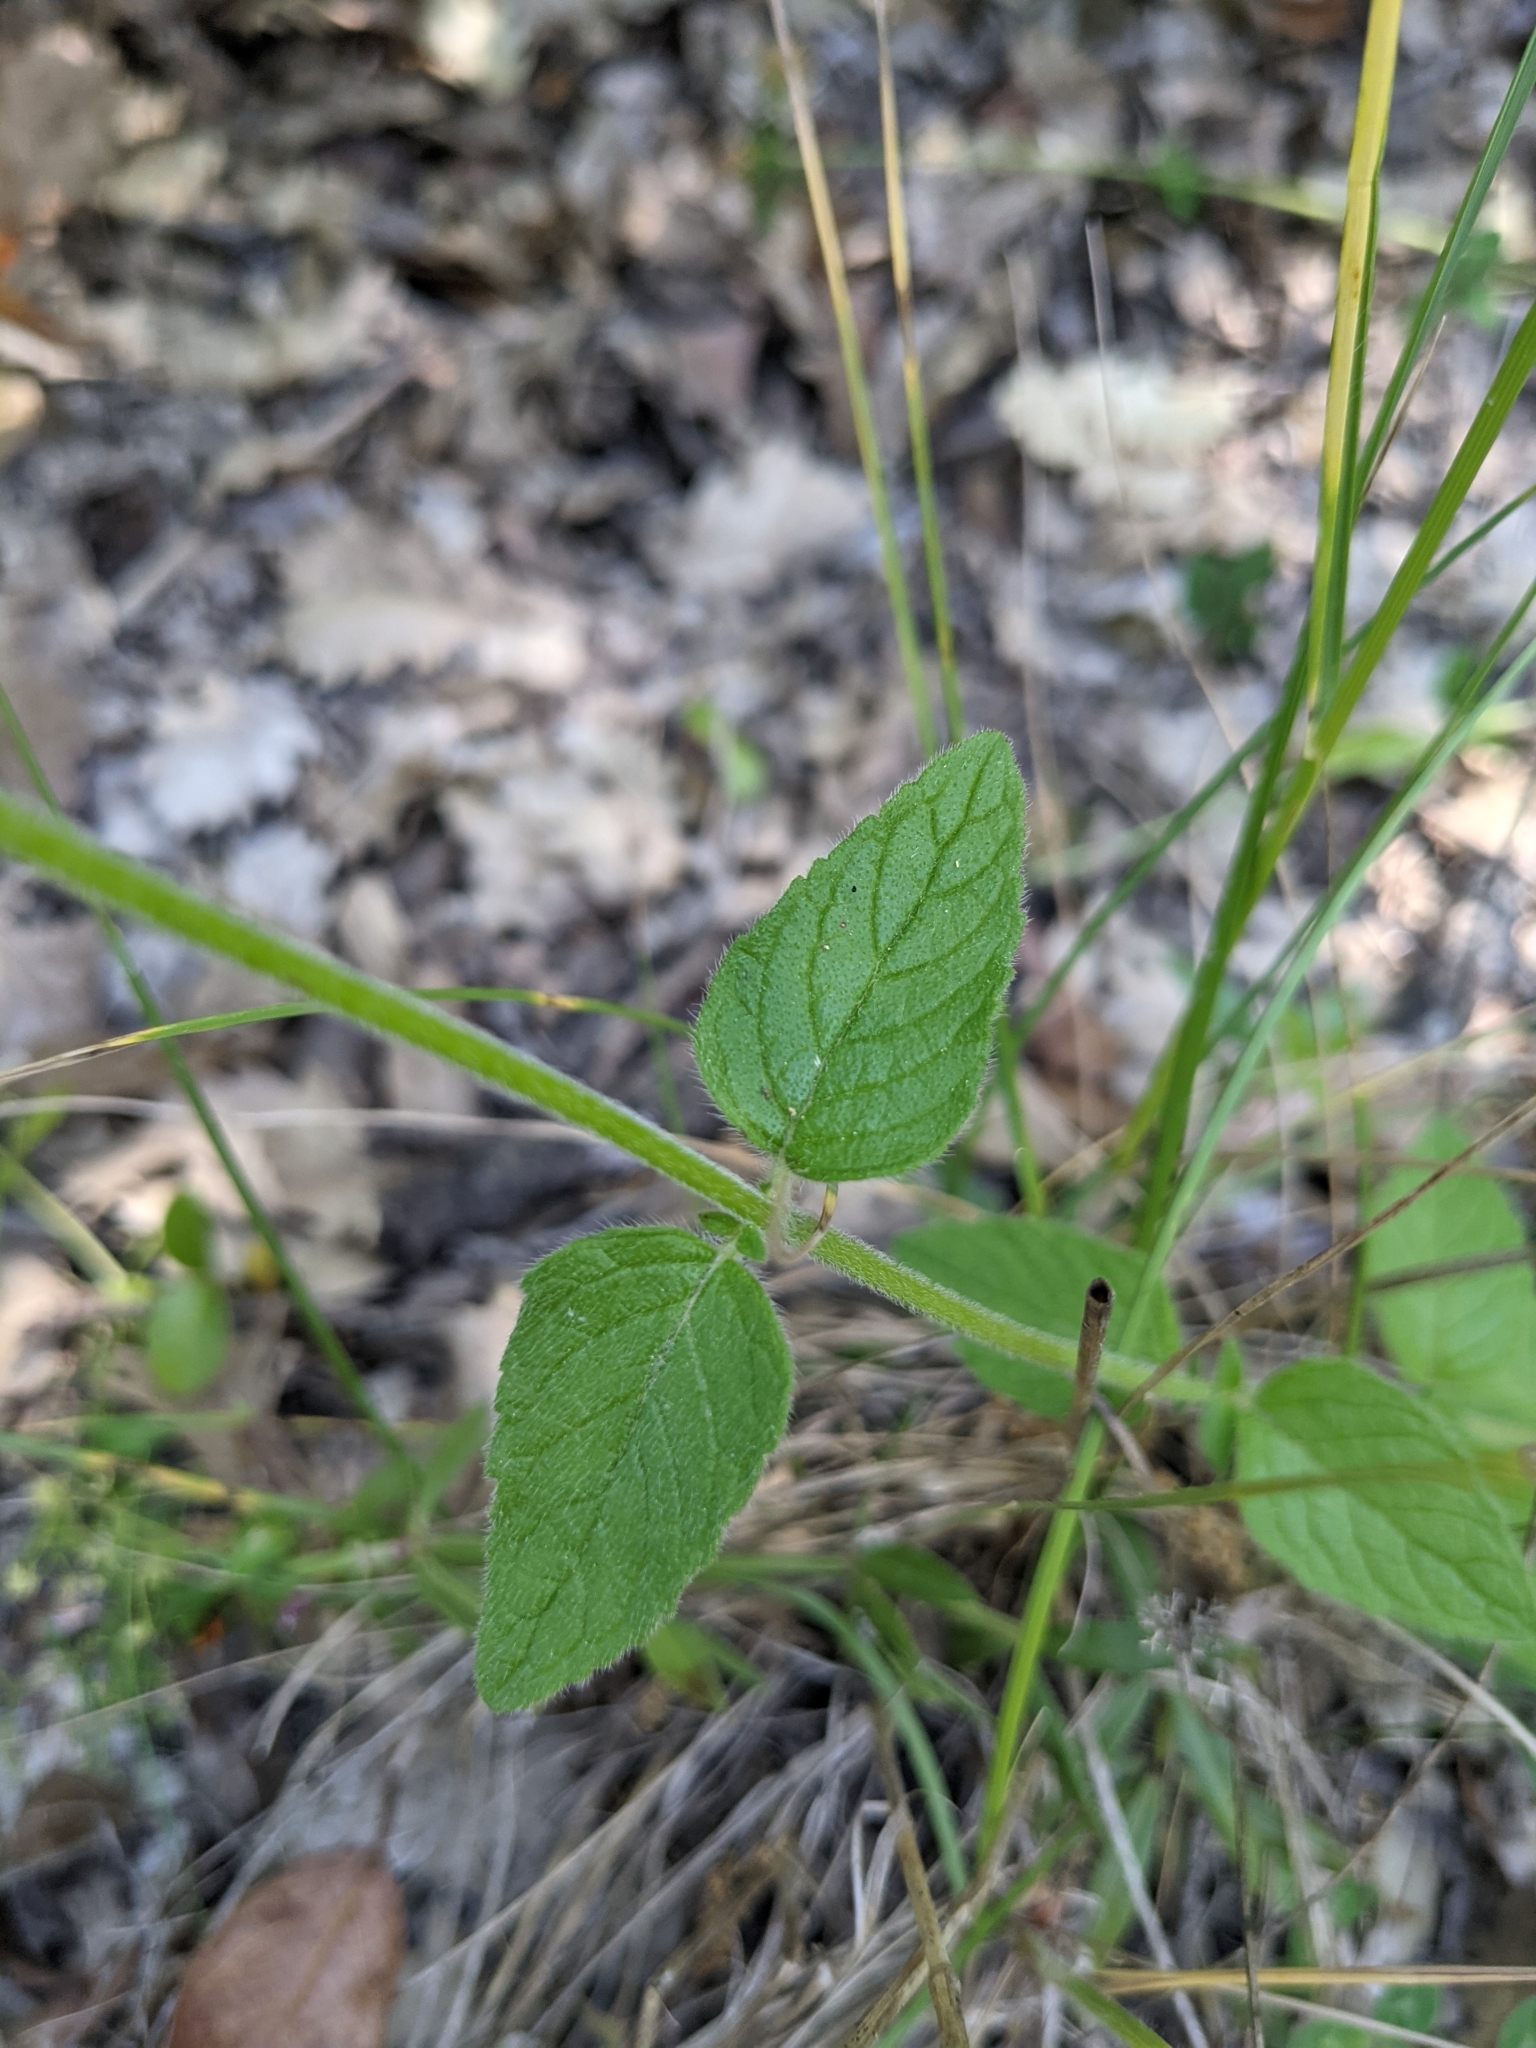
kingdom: Plantae
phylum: Tracheophyta
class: Magnoliopsida
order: Lamiales
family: Lamiaceae
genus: Clinopodium
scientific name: Clinopodium vulgare
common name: Wild basil
